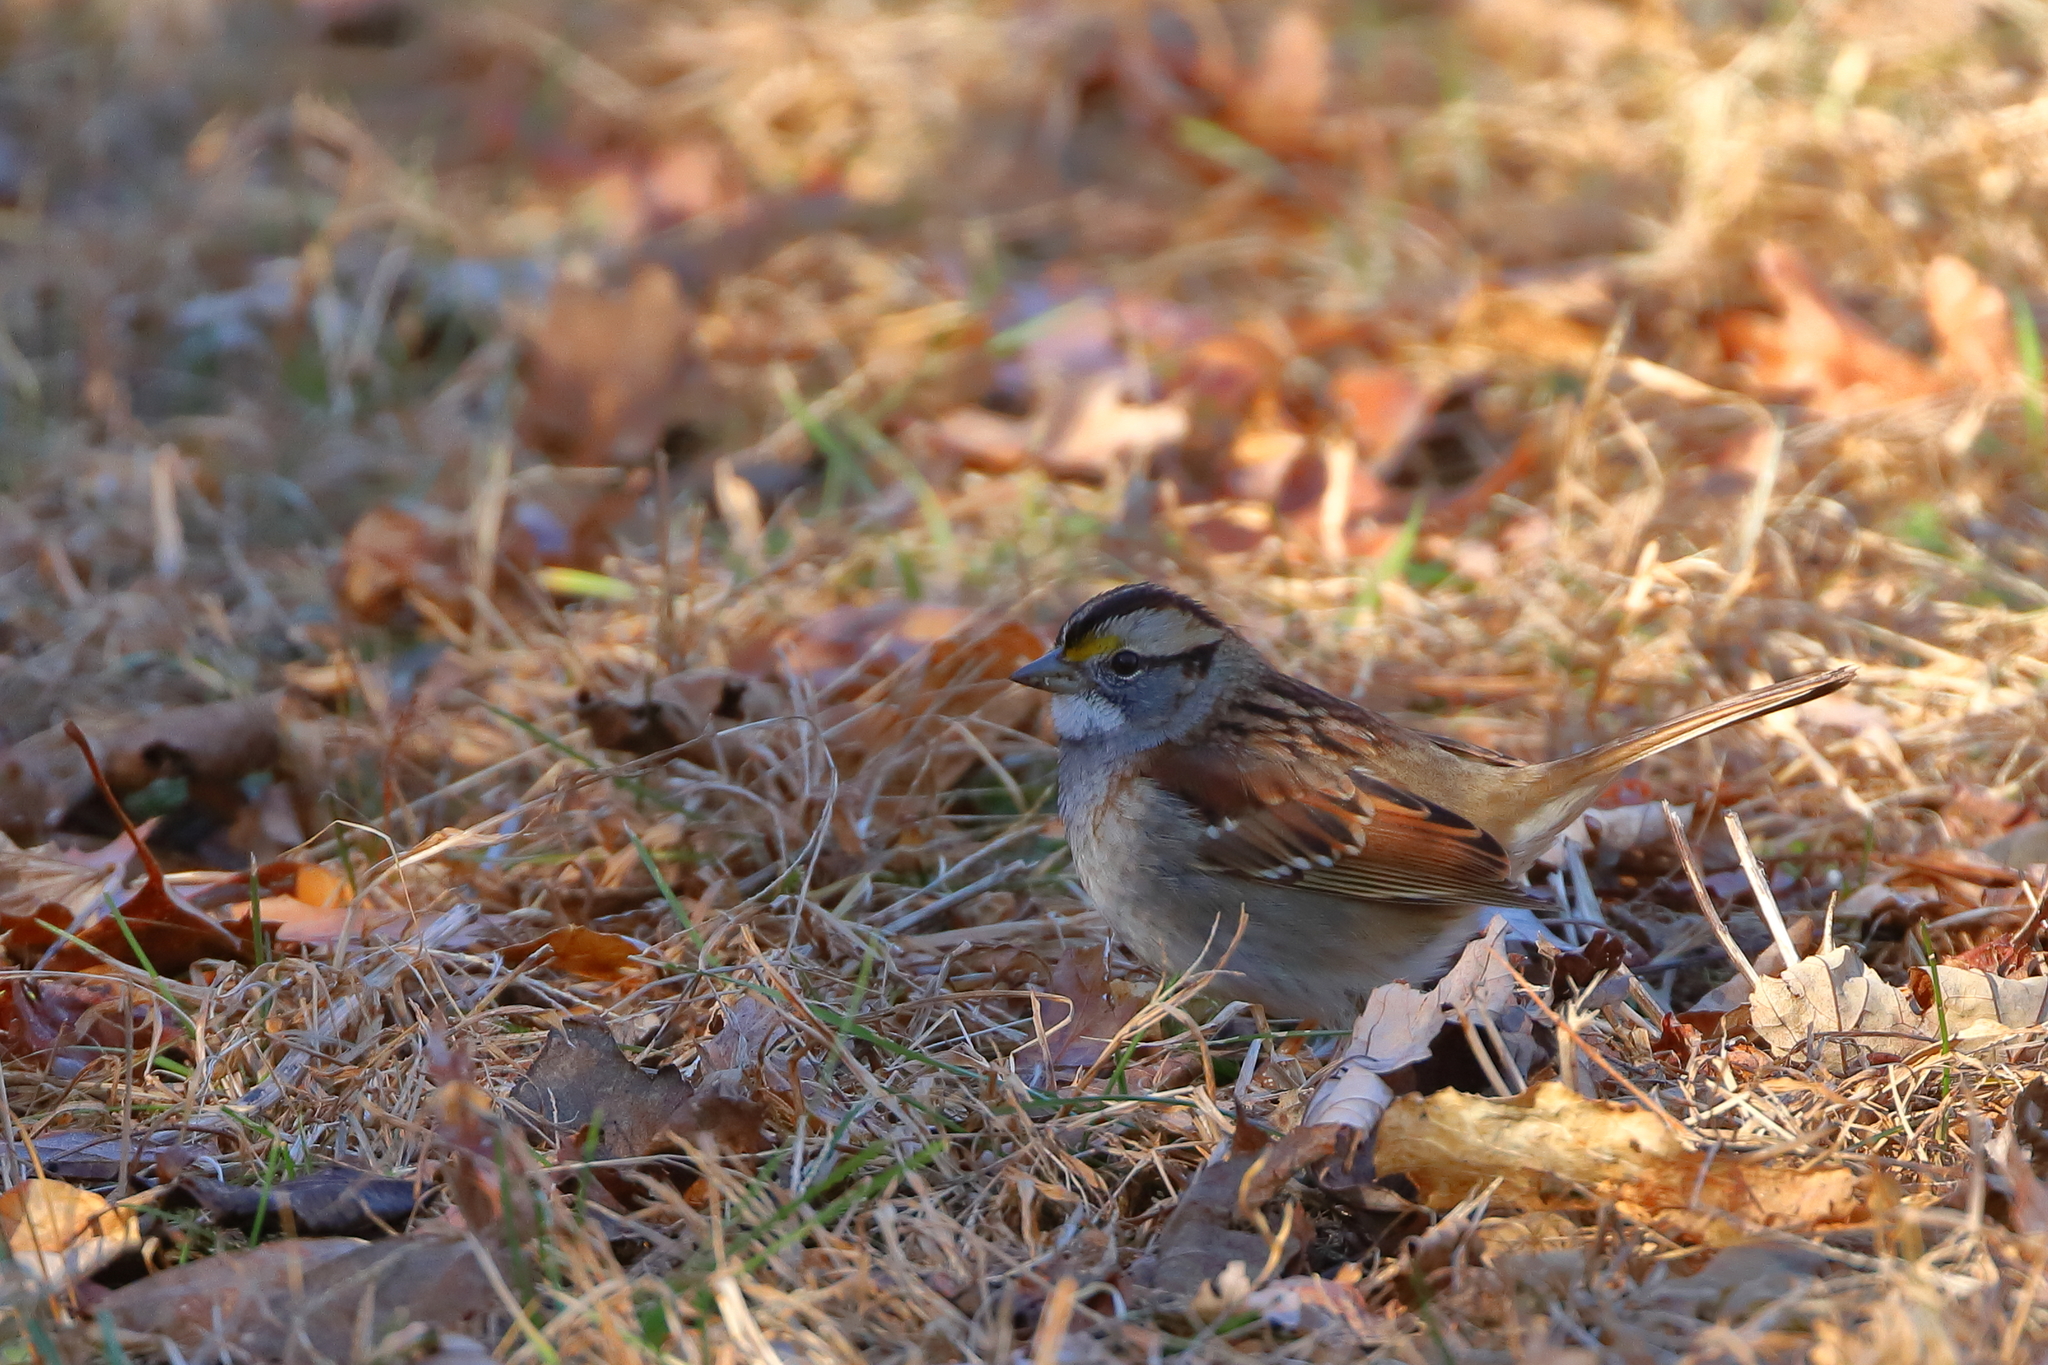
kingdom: Animalia
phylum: Chordata
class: Aves
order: Passeriformes
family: Passerellidae
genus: Zonotrichia
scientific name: Zonotrichia albicollis
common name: White-throated sparrow
